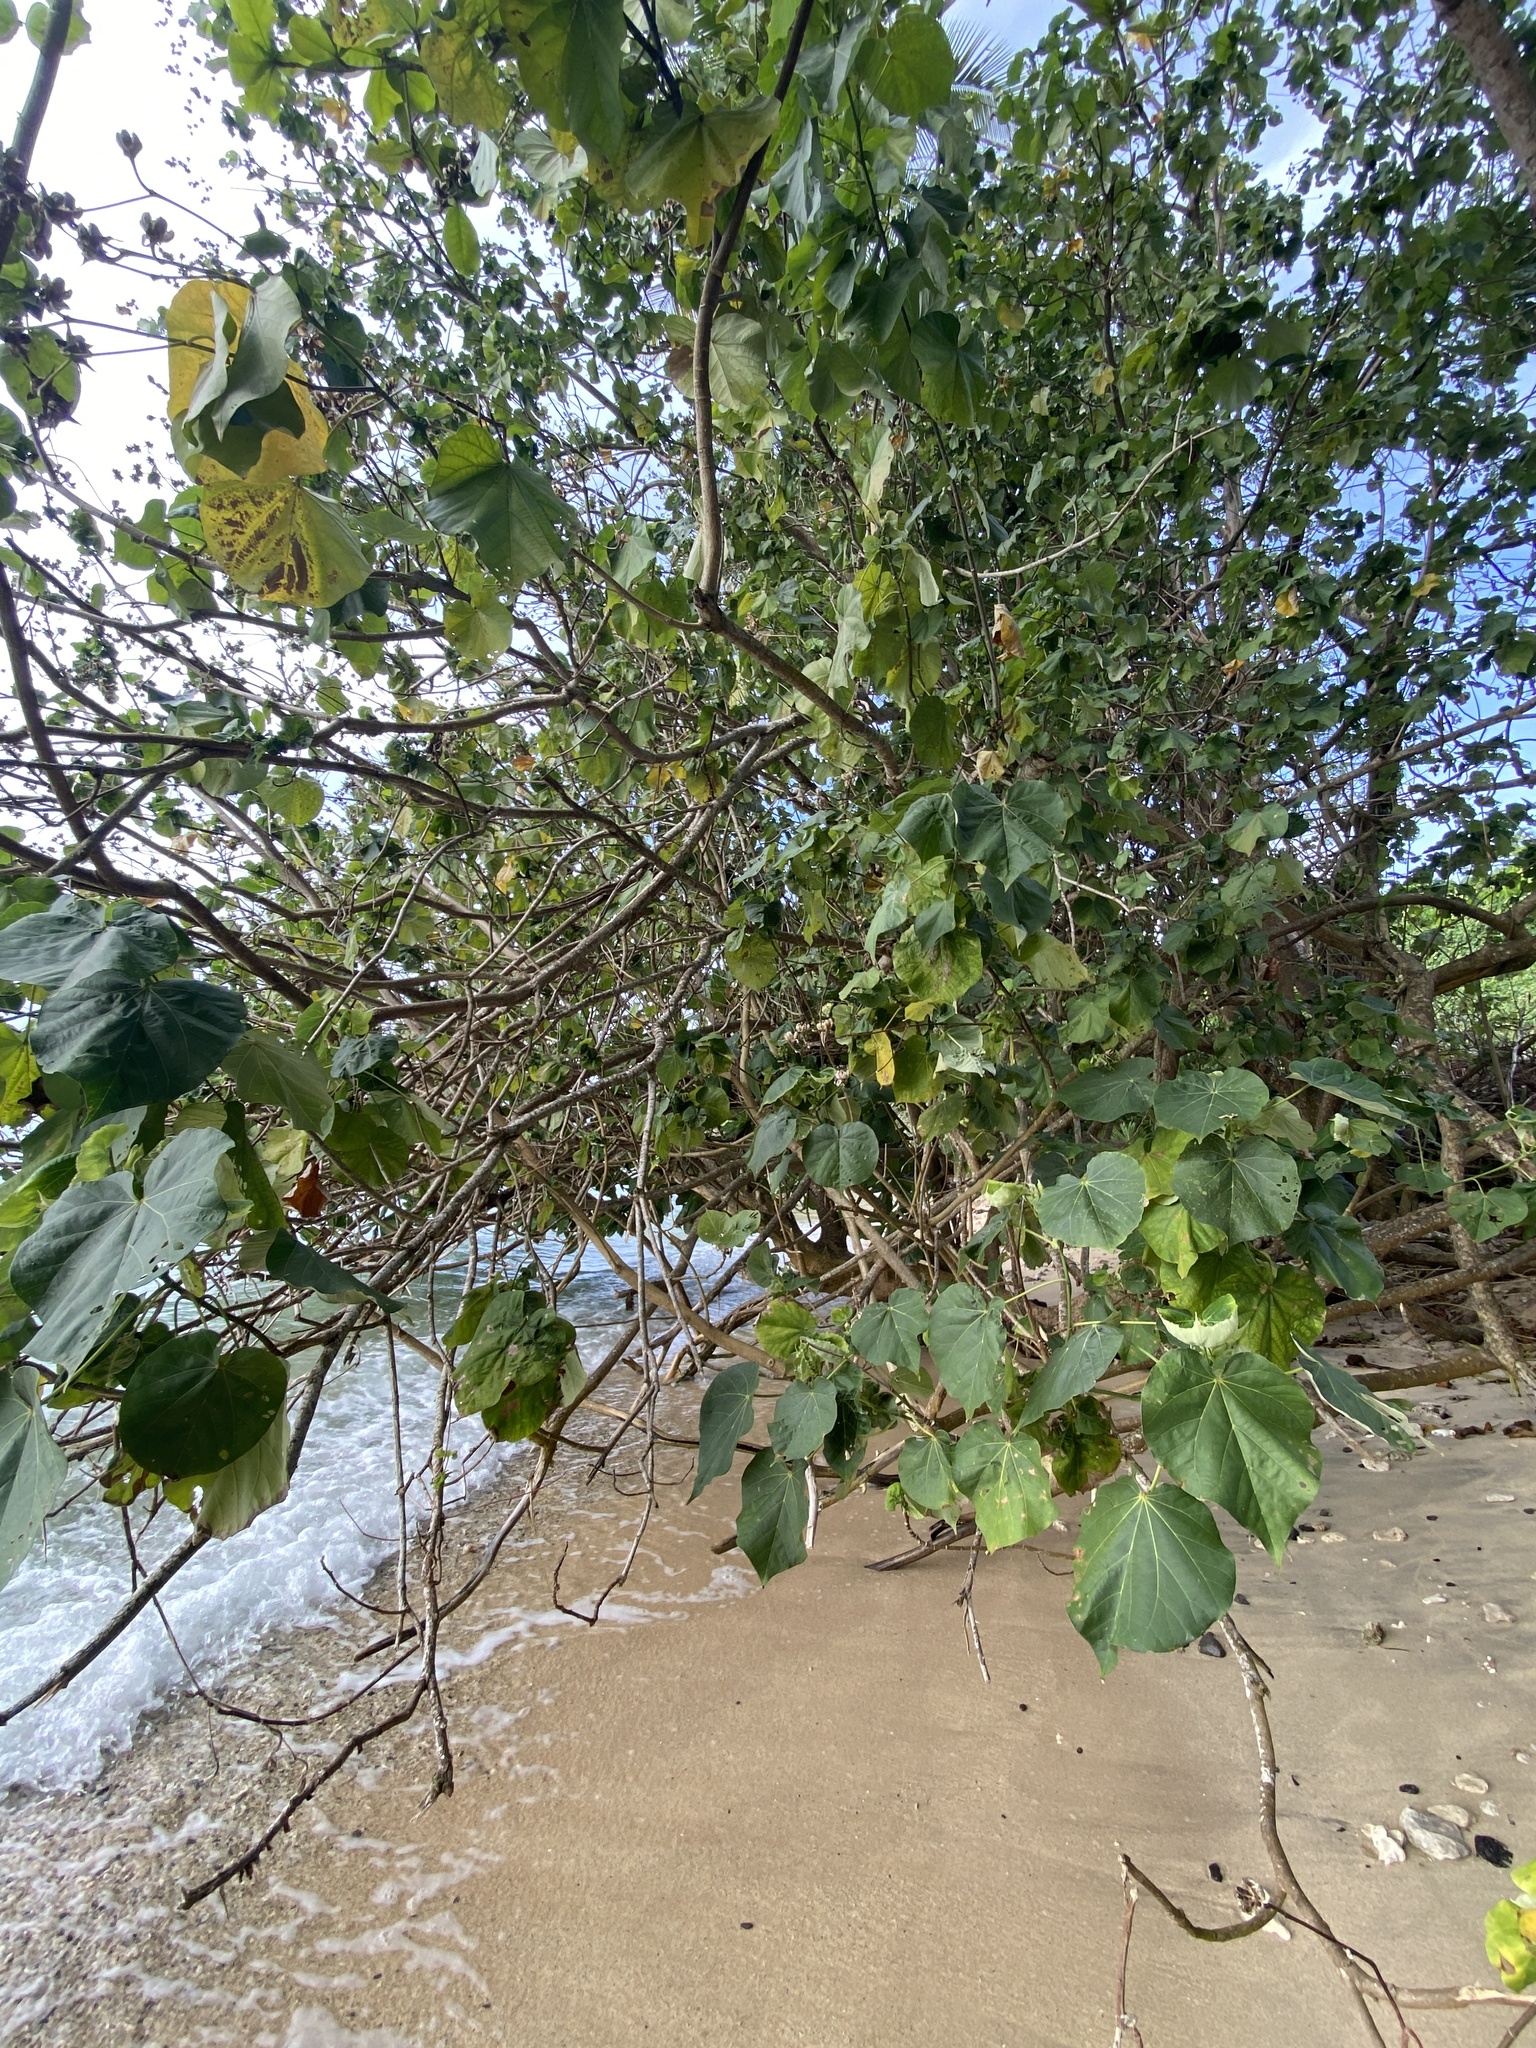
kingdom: Plantae
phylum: Tracheophyta
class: Magnoliopsida
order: Malvales
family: Malvaceae
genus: Talipariti
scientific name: Talipariti tiliaceum
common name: Sea hibiscus
